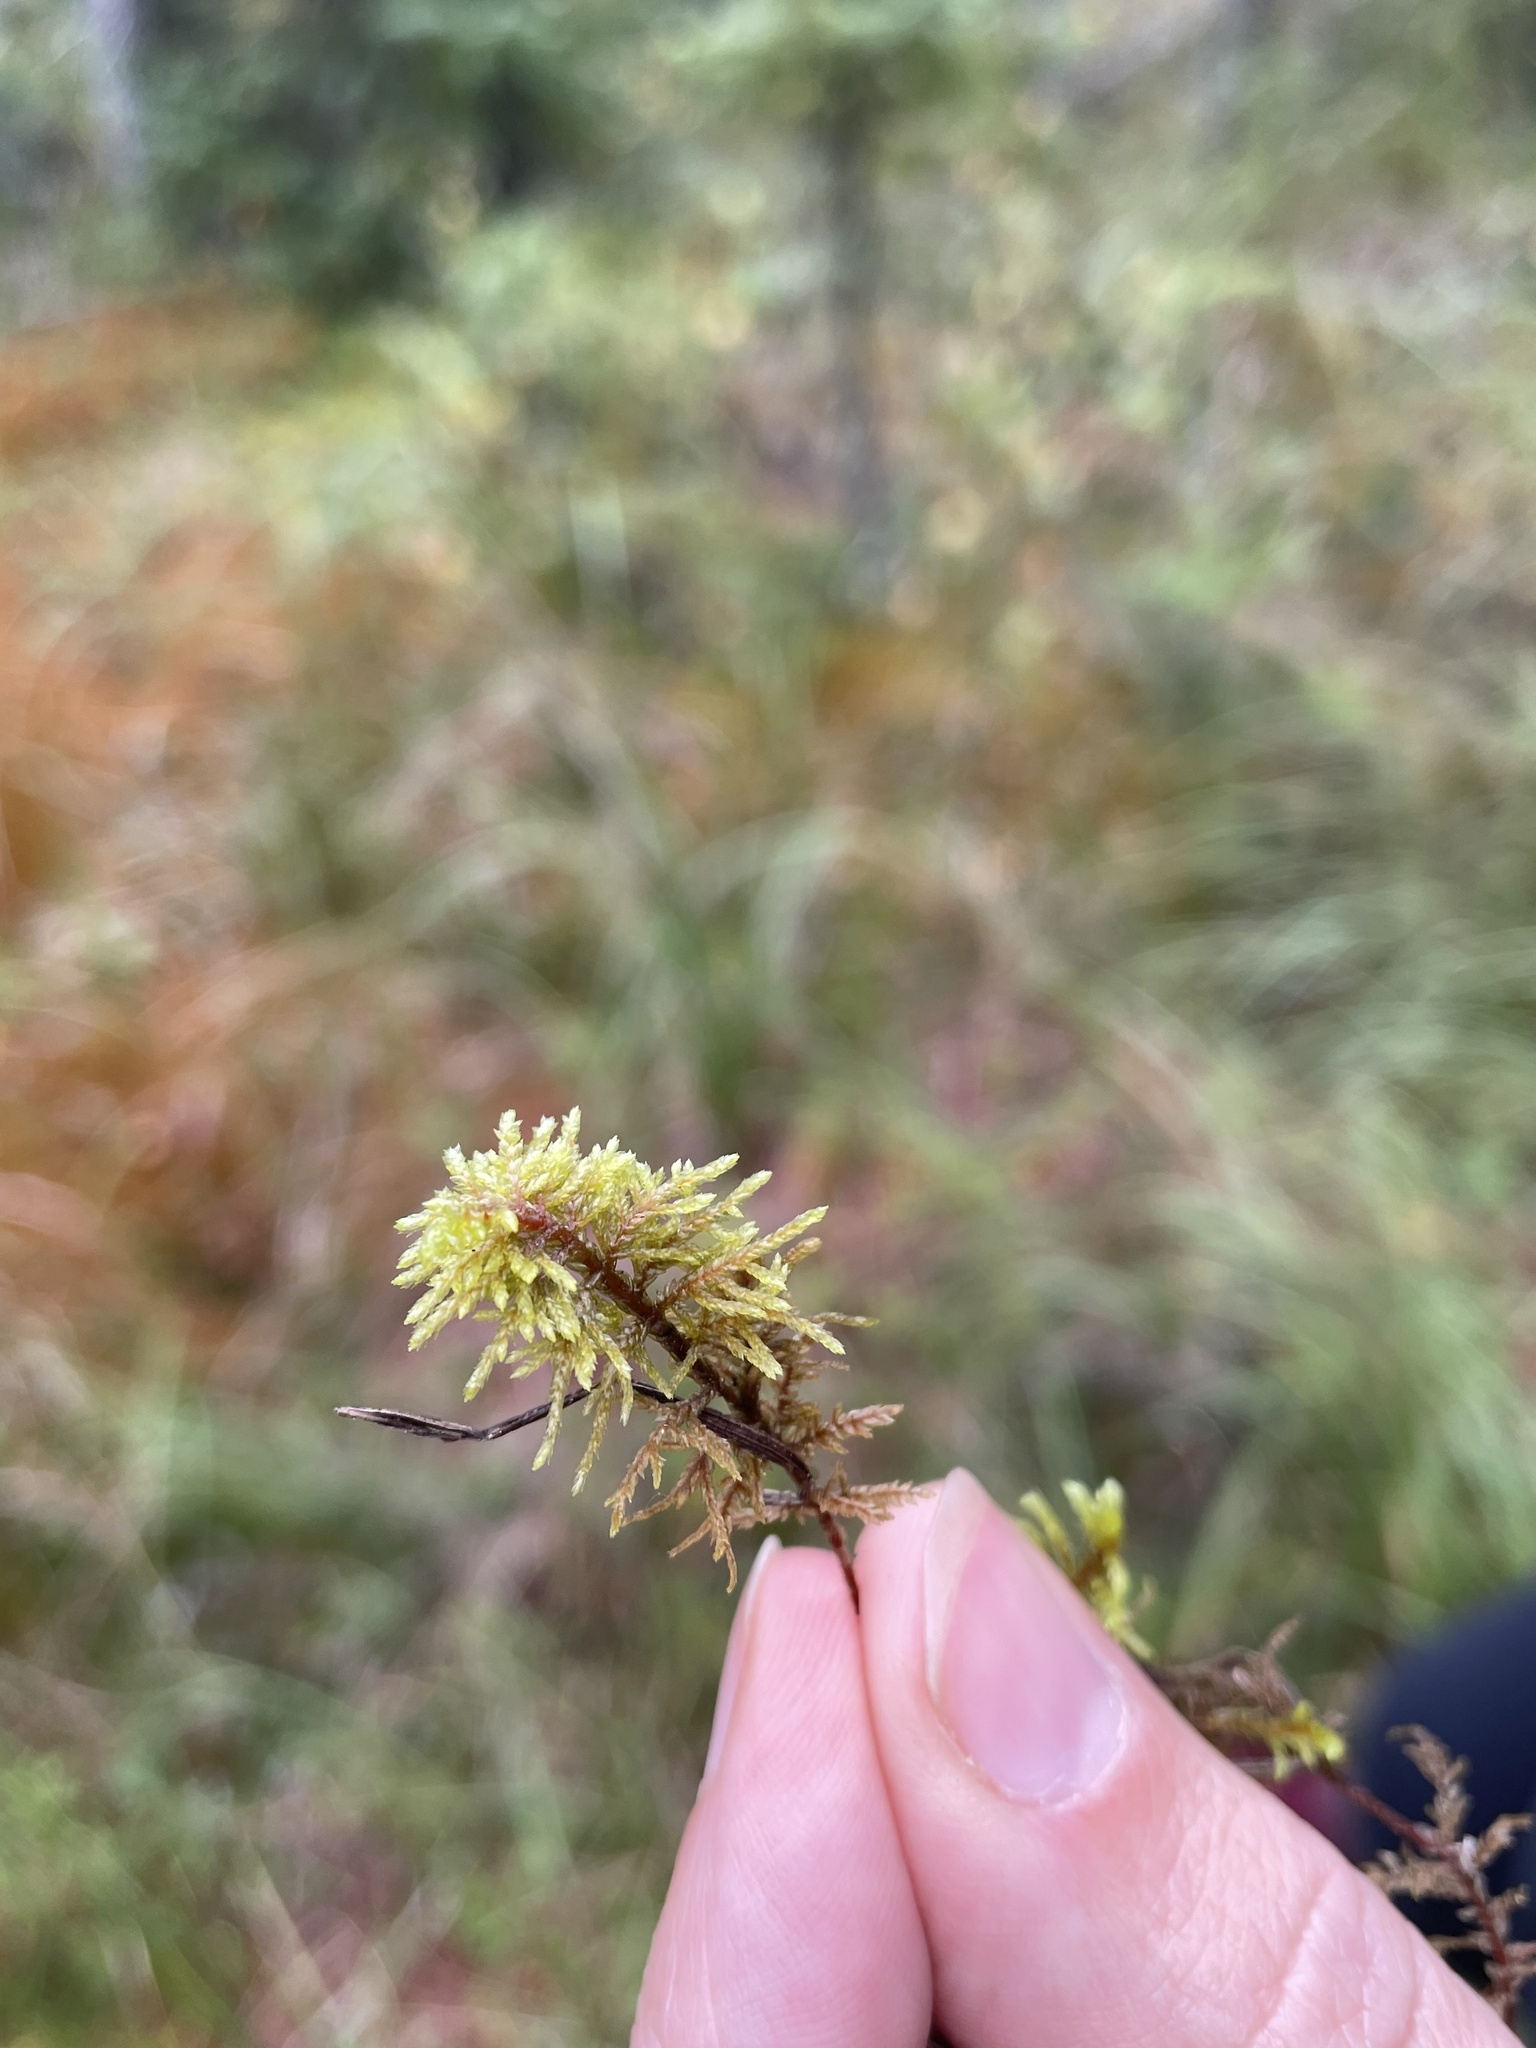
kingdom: Plantae
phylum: Bryophyta
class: Bryopsida
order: Hypnales
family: Hylocomiaceae
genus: Hylocomium
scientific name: Hylocomium splendens
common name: Stairstep moss
